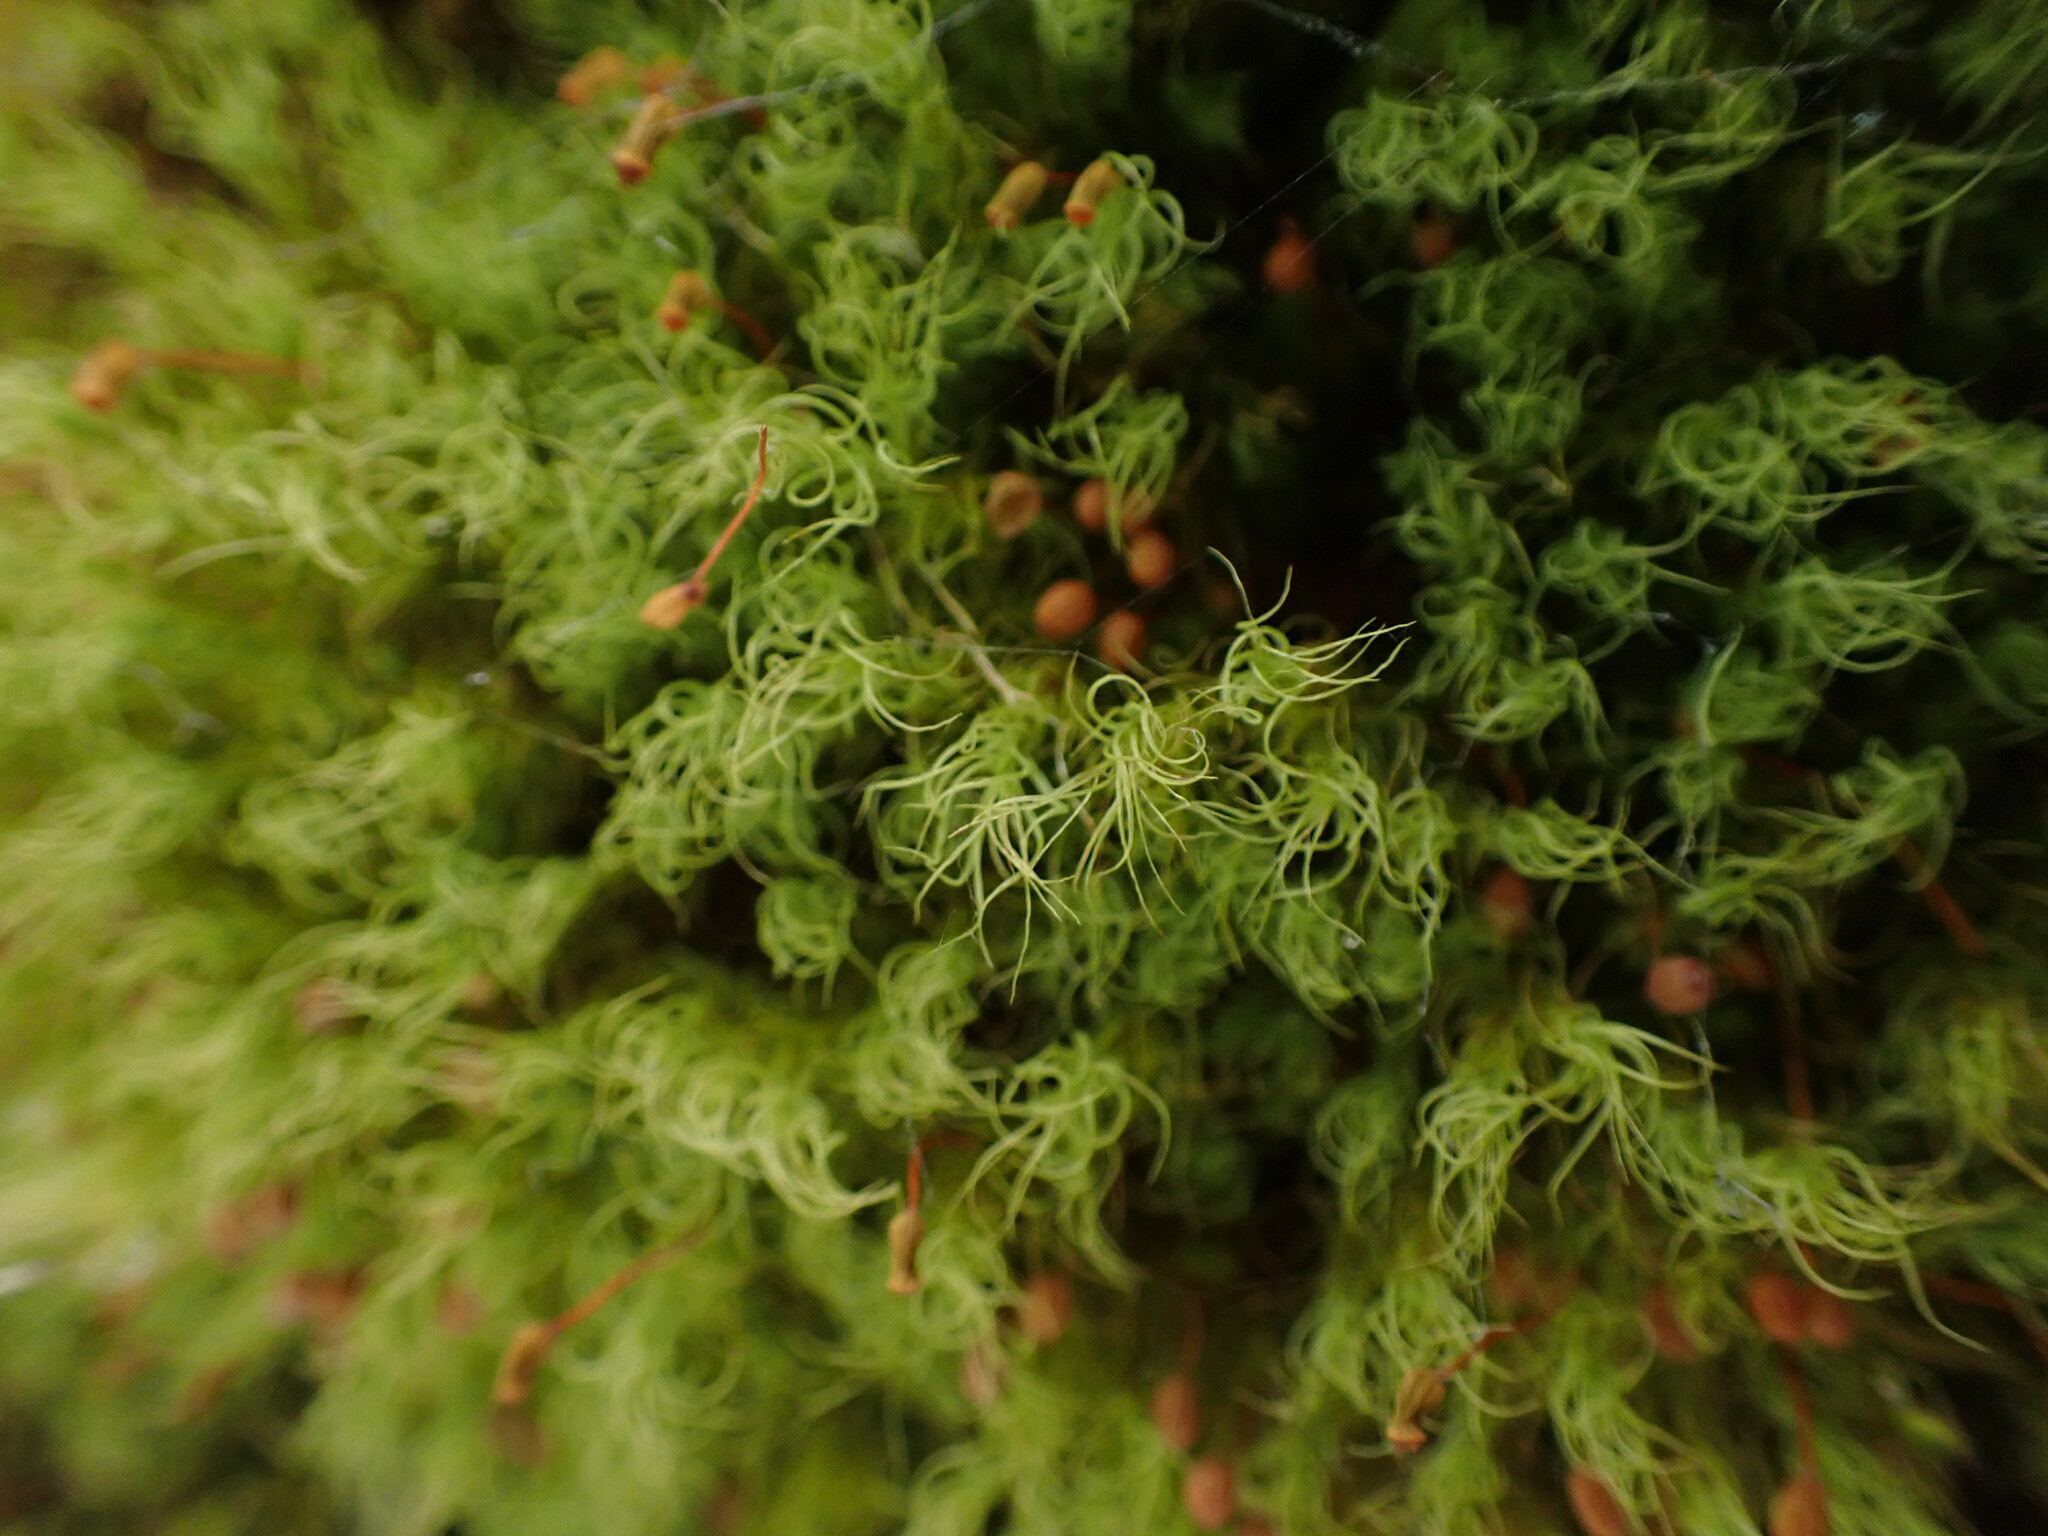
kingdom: Plantae
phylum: Bryophyta
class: Bryopsida
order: Bartramiales
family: Bartramiaceae
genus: Bartramia
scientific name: Bartramia ithyphylla
